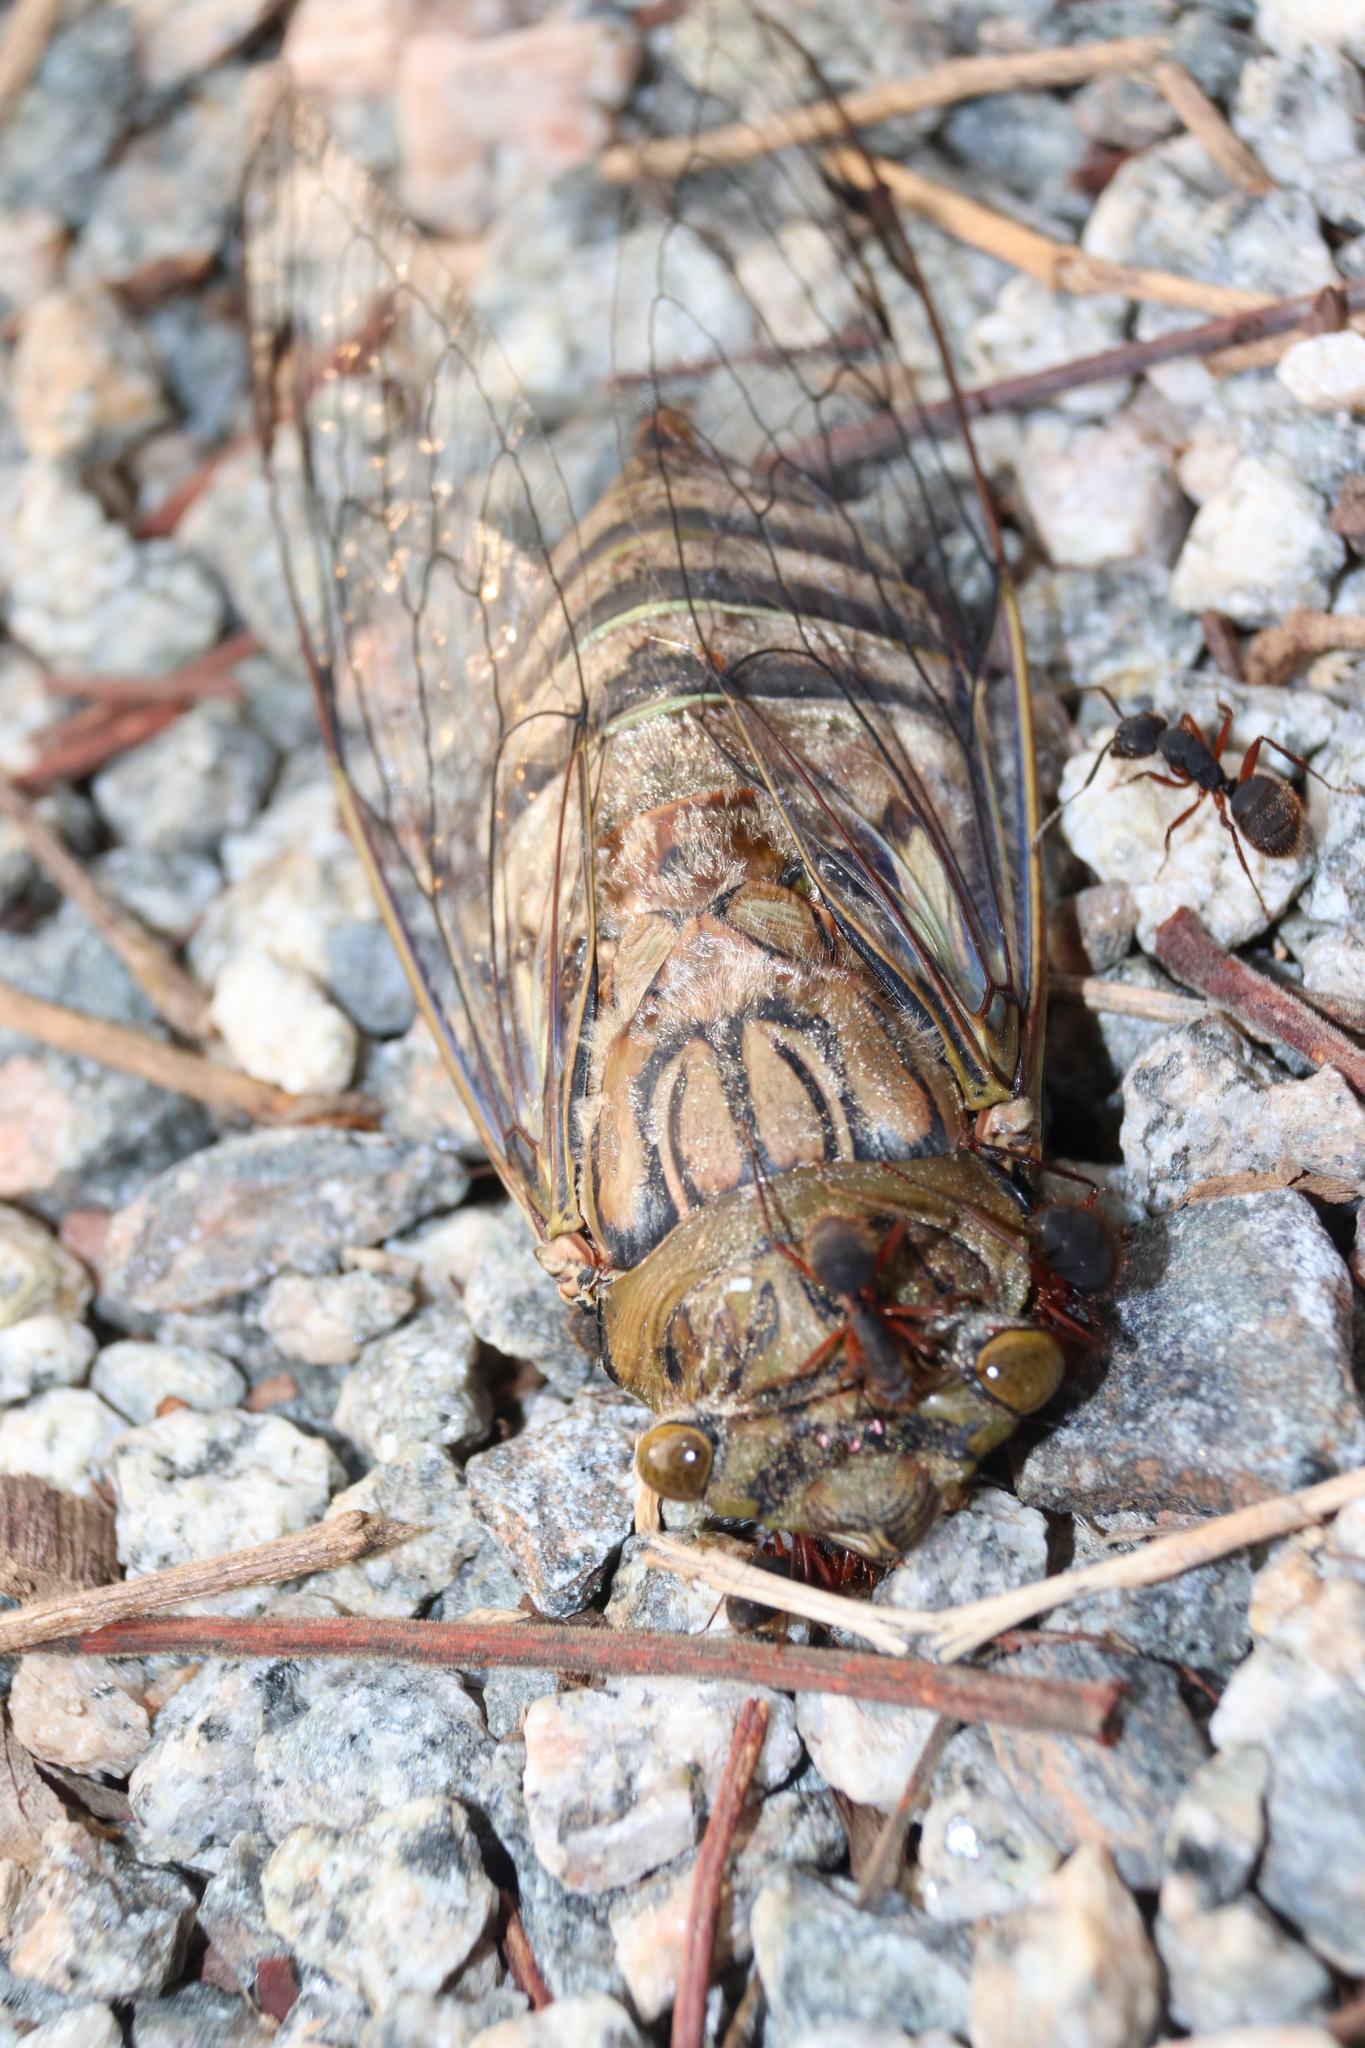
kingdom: Animalia
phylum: Arthropoda
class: Insecta
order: Hemiptera
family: Cicadidae
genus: Quesada
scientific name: Quesada gigas
